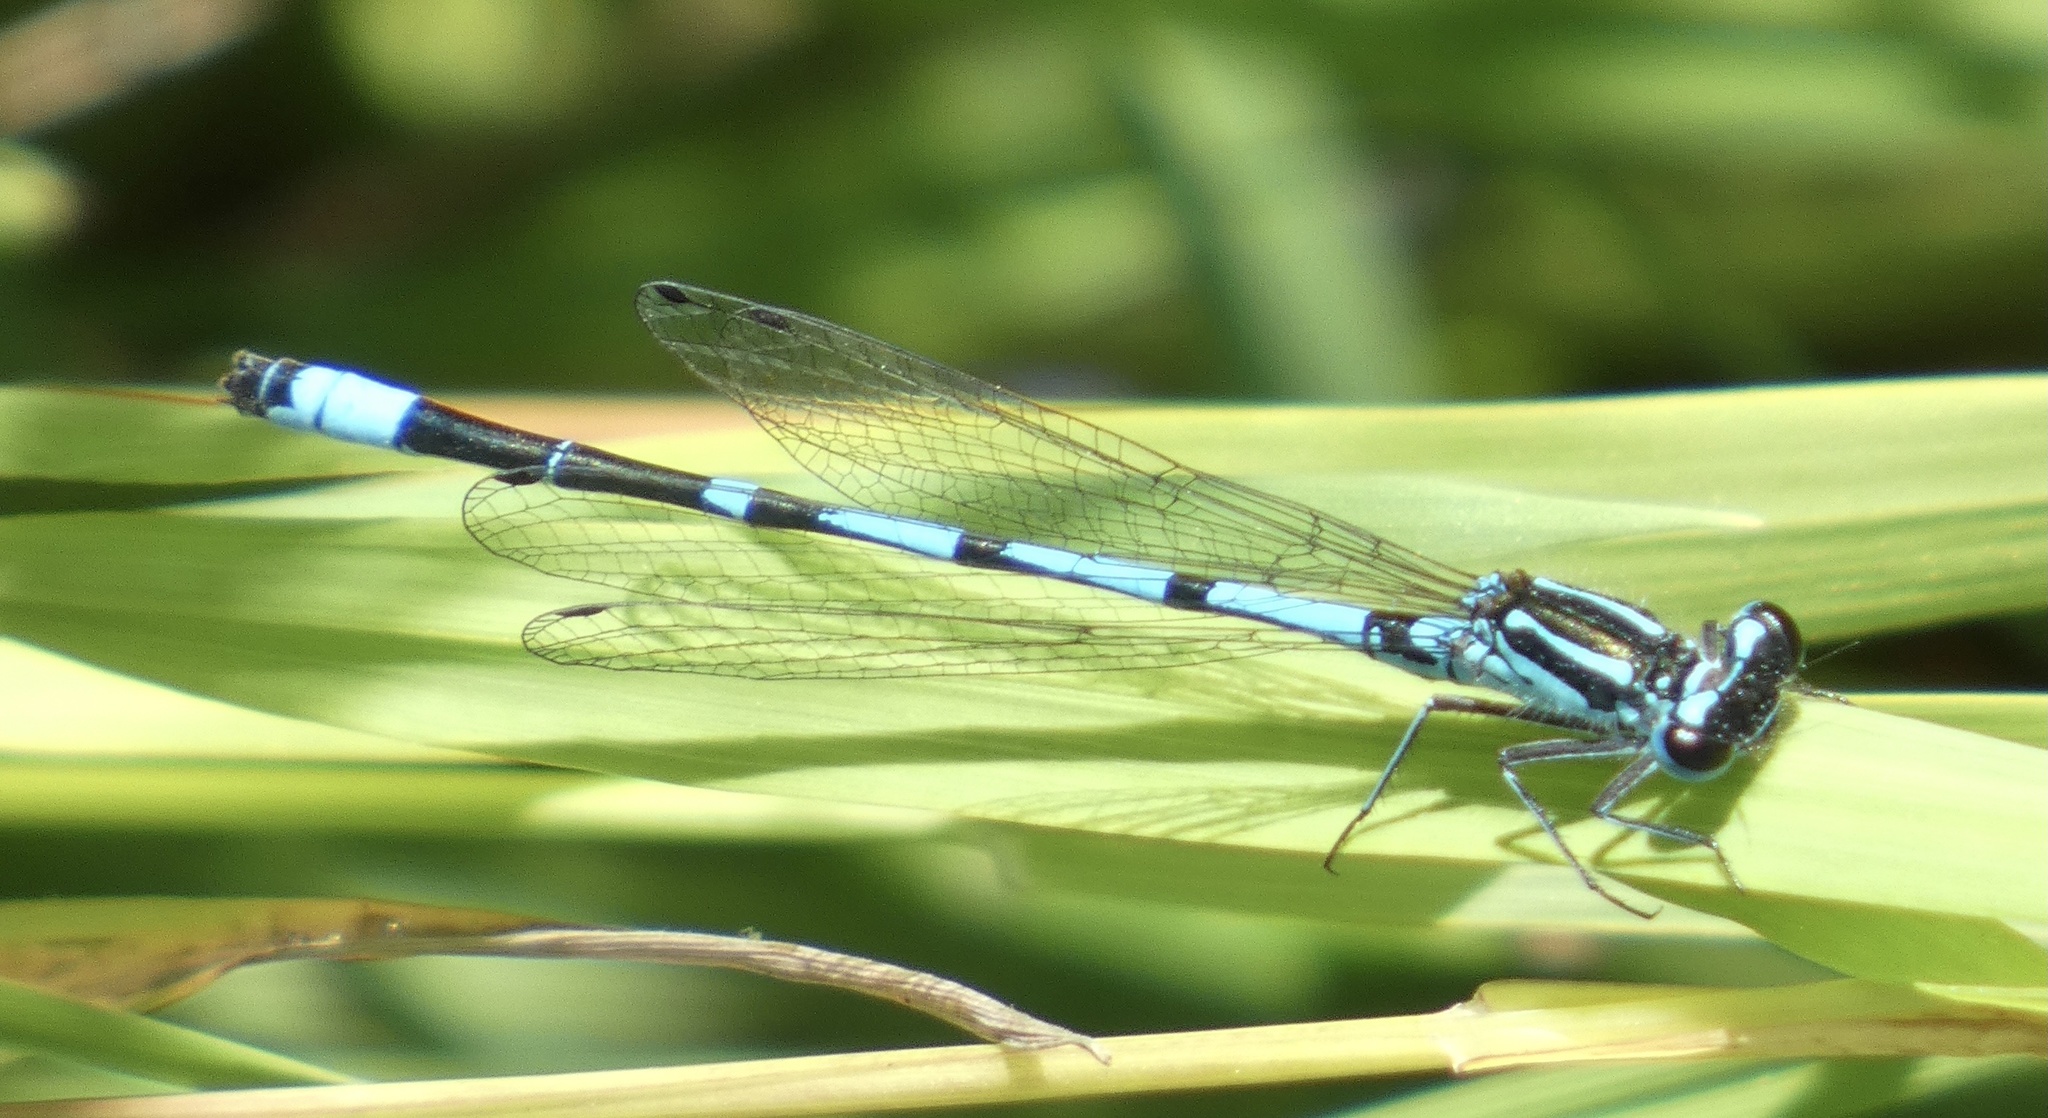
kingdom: Animalia
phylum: Arthropoda
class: Insecta
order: Odonata
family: Coenagrionidae
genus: Coenagrion
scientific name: Coenagrion pulchellum
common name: Variable bluet
